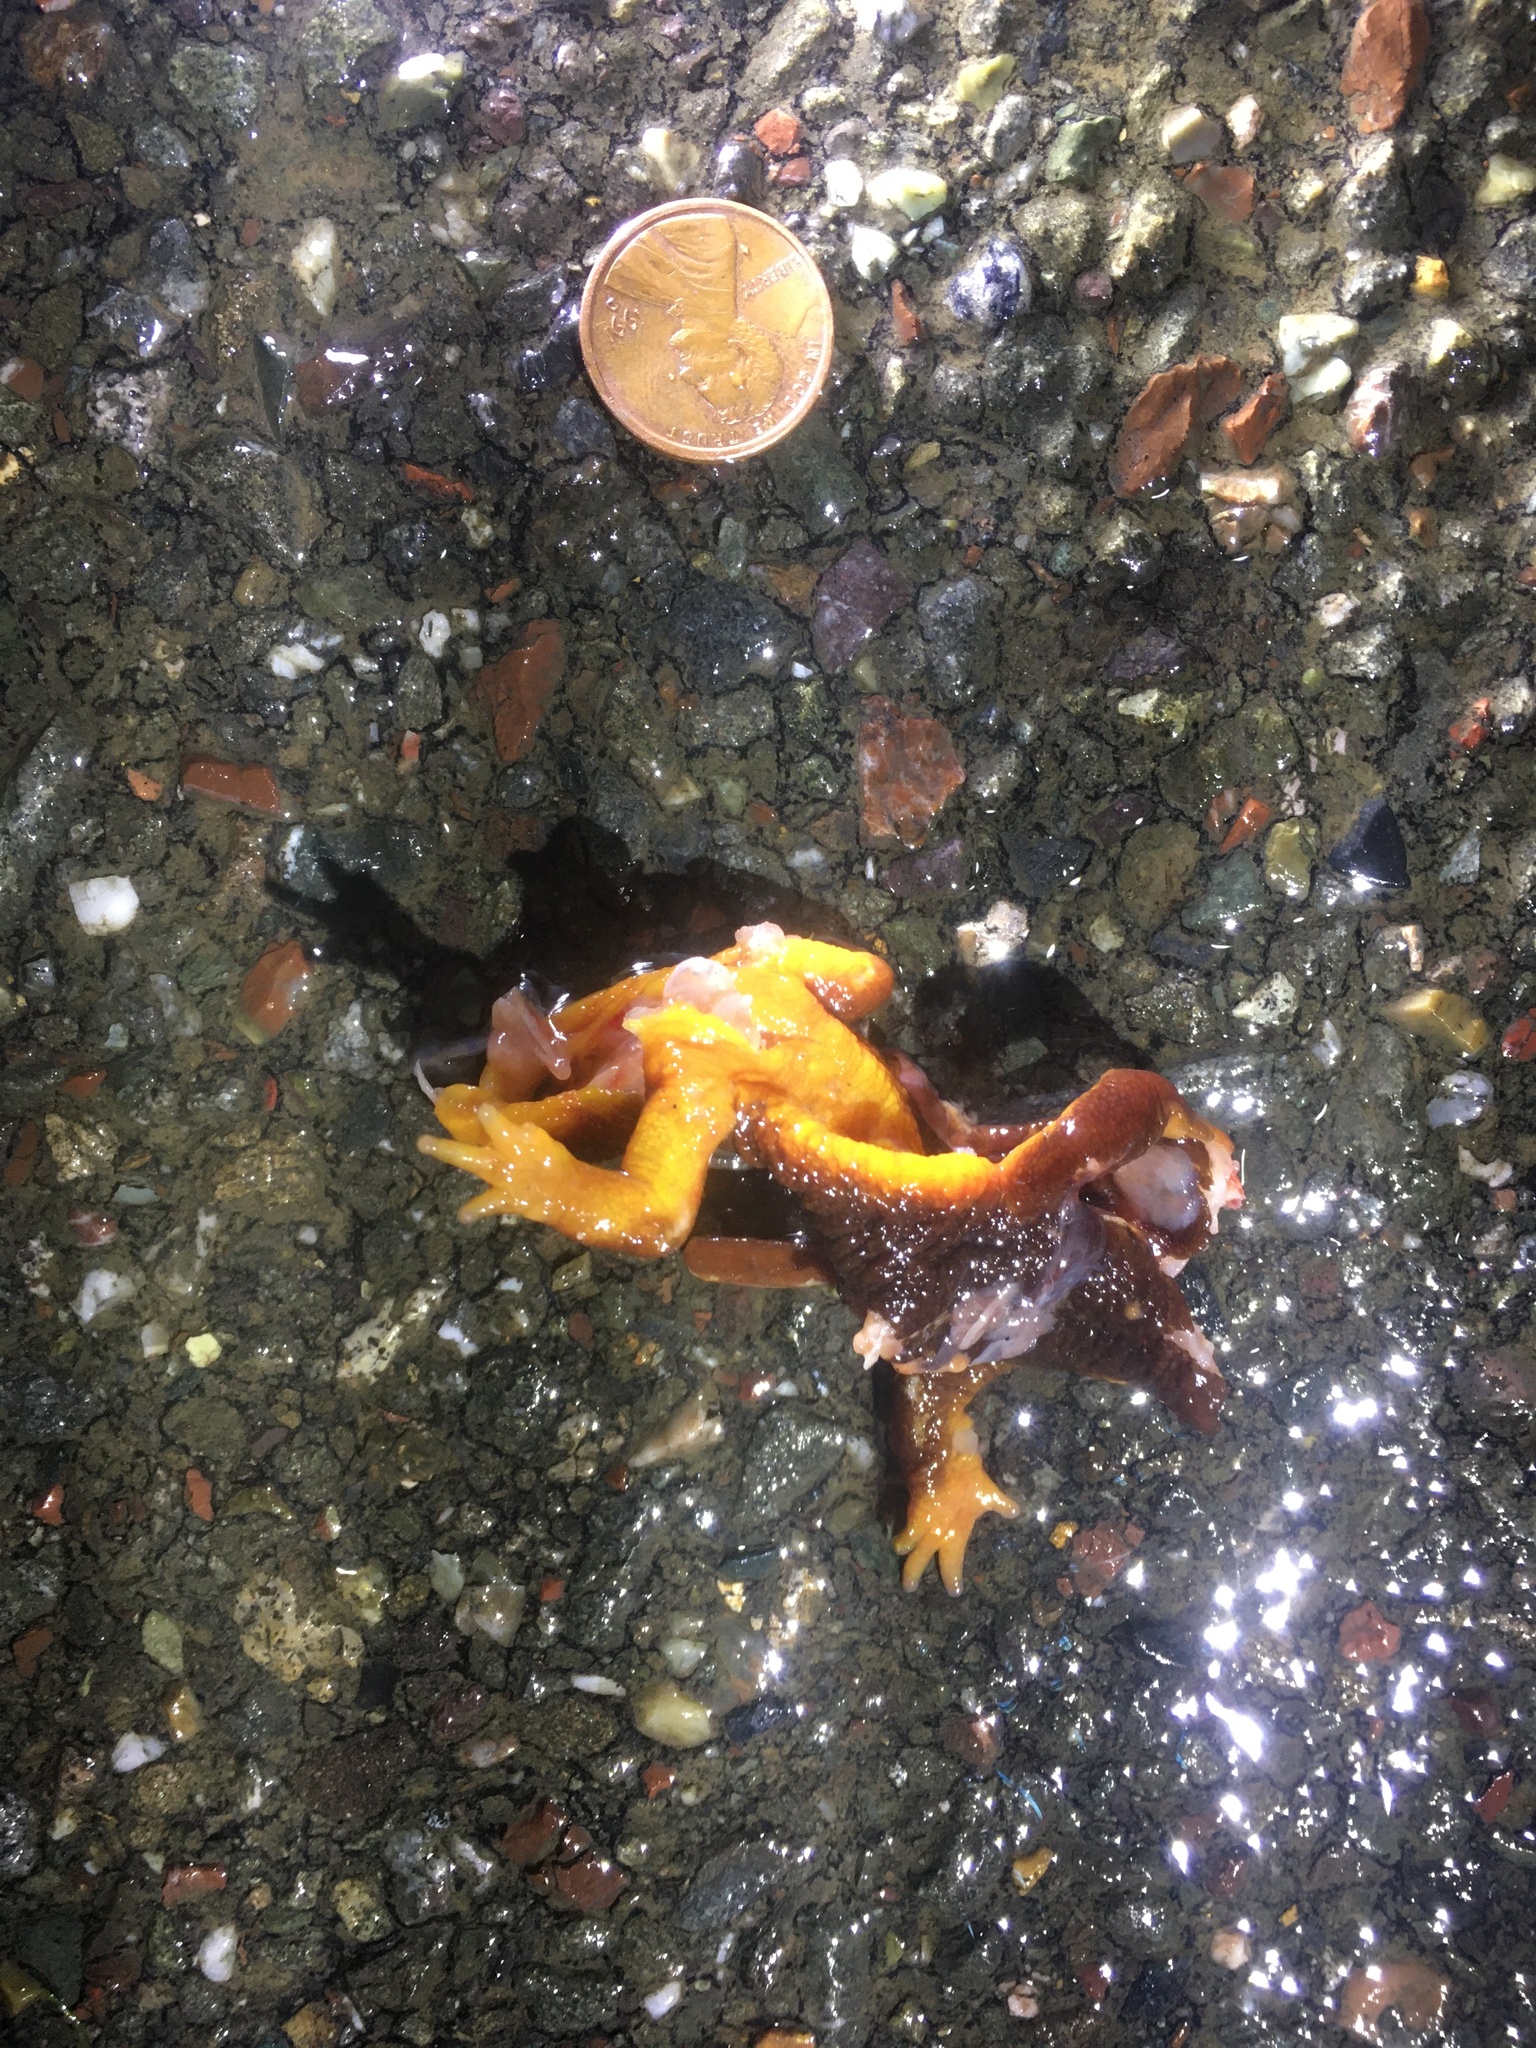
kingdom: Animalia
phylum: Chordata
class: Amphibia
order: Caudata
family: Salamandridae
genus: Taricha
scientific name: Taricha
